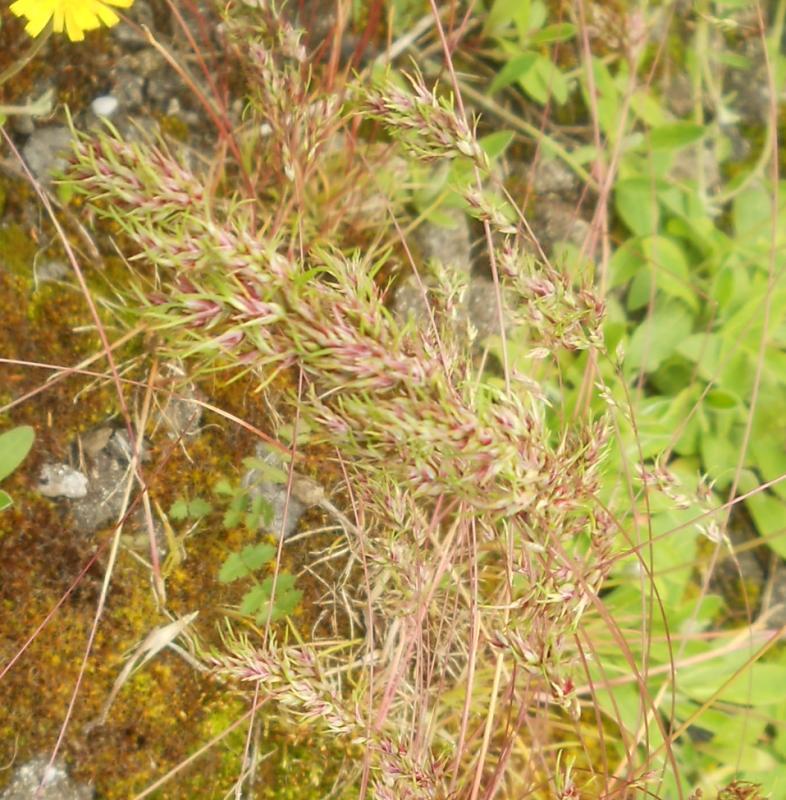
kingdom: Plantae
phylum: Tracheophyta
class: Liliopsida
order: Poales
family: Poaceae
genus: Poa
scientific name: Poa bulbosa
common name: Bulbous bluegrass
